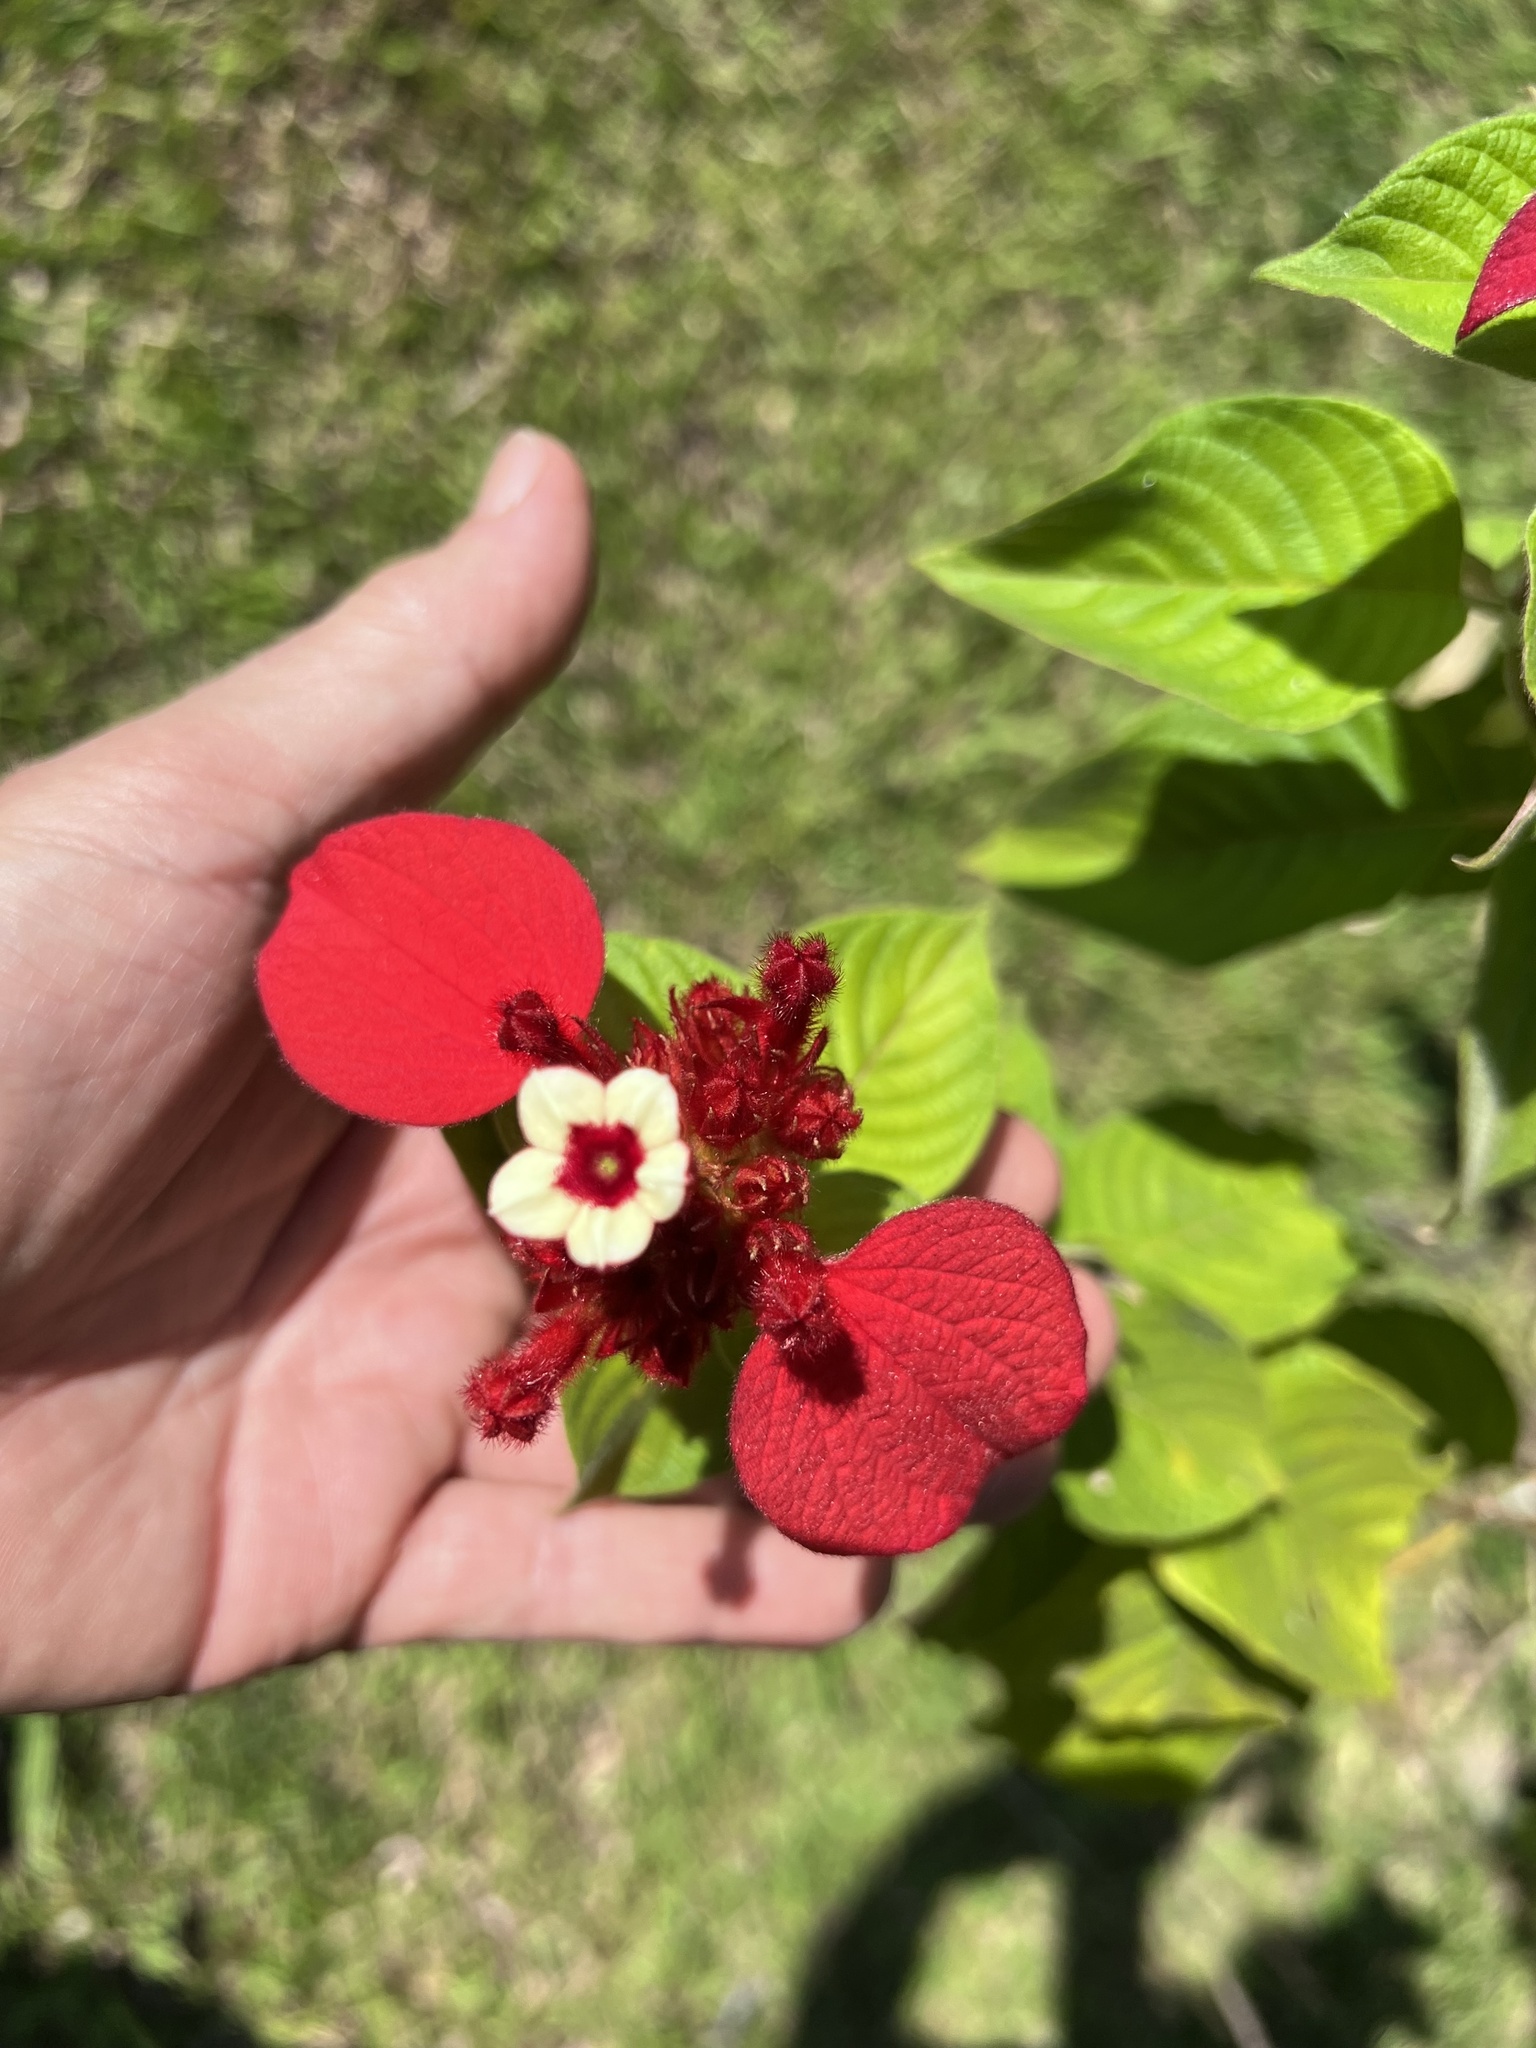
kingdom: Plantae
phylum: Tracheophyta
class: Magnoliopsida
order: Gentianales
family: Rubiaceae
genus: Mussaenda
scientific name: Mussaenda erythrophylla
